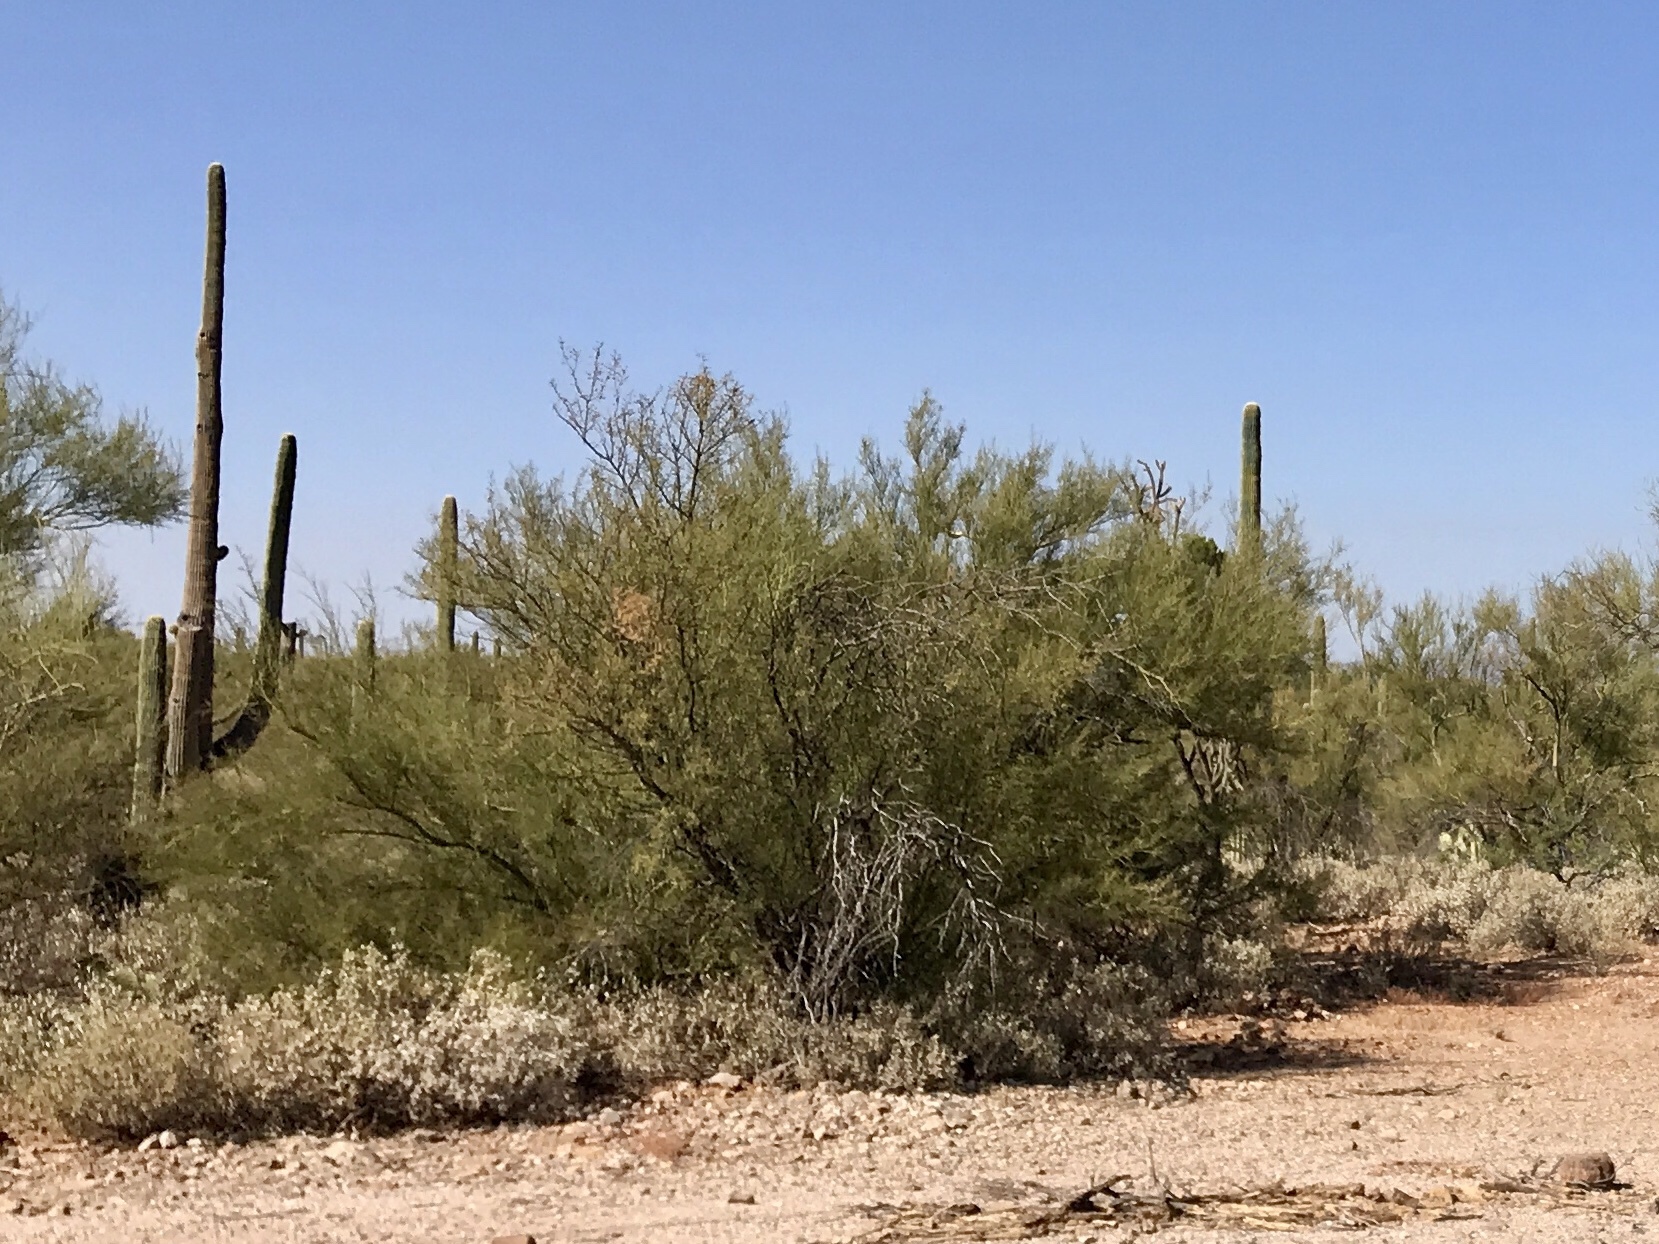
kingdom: Plantae
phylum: Tracheophyta
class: Magnoliopsida
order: Fabales
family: Fabaceae
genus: Parkinsonia
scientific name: Parkinsonia microphylla
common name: Yellow paloverde
